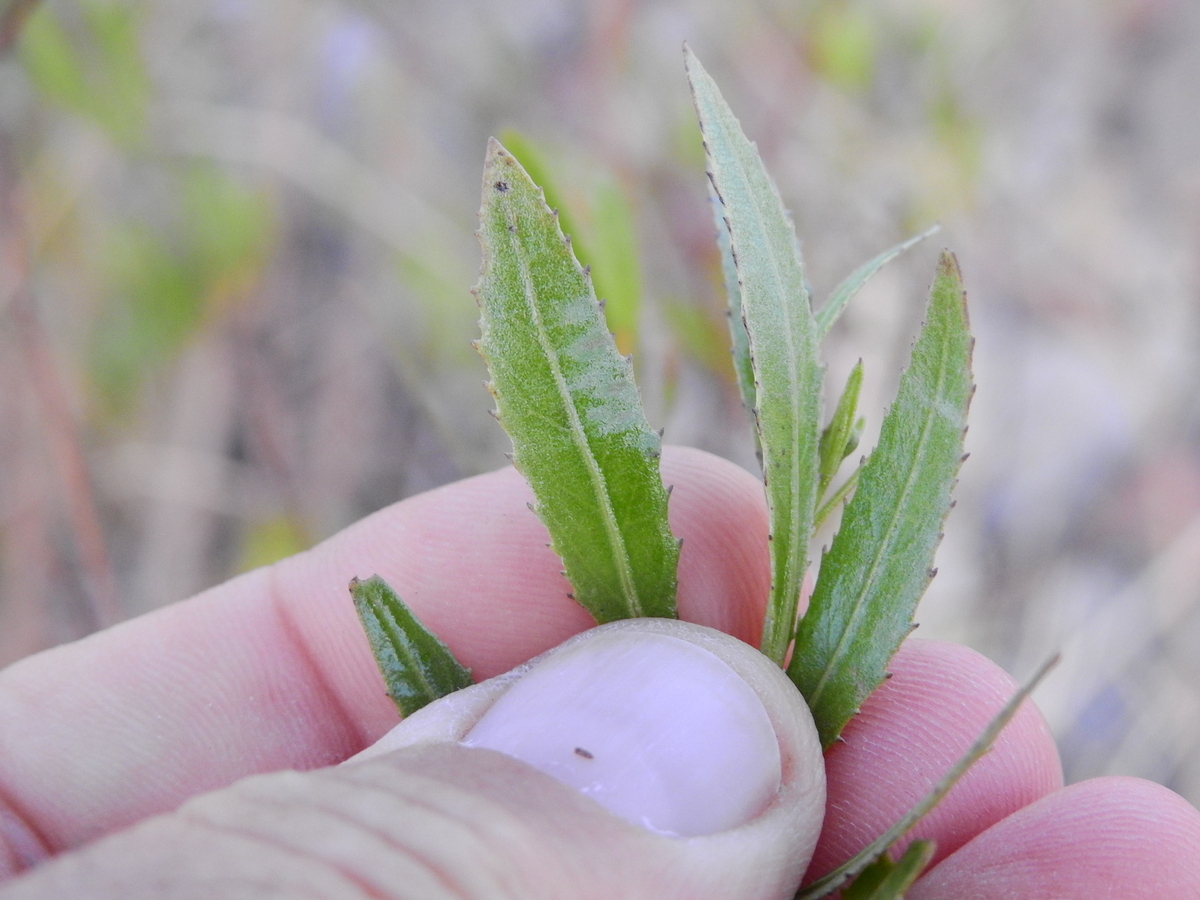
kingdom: Plantae
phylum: Tracheophyta
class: Magnoliopsida
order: Asterales
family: Asteraceae
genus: Tessaria
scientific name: Tessaria dodonaeifolia
